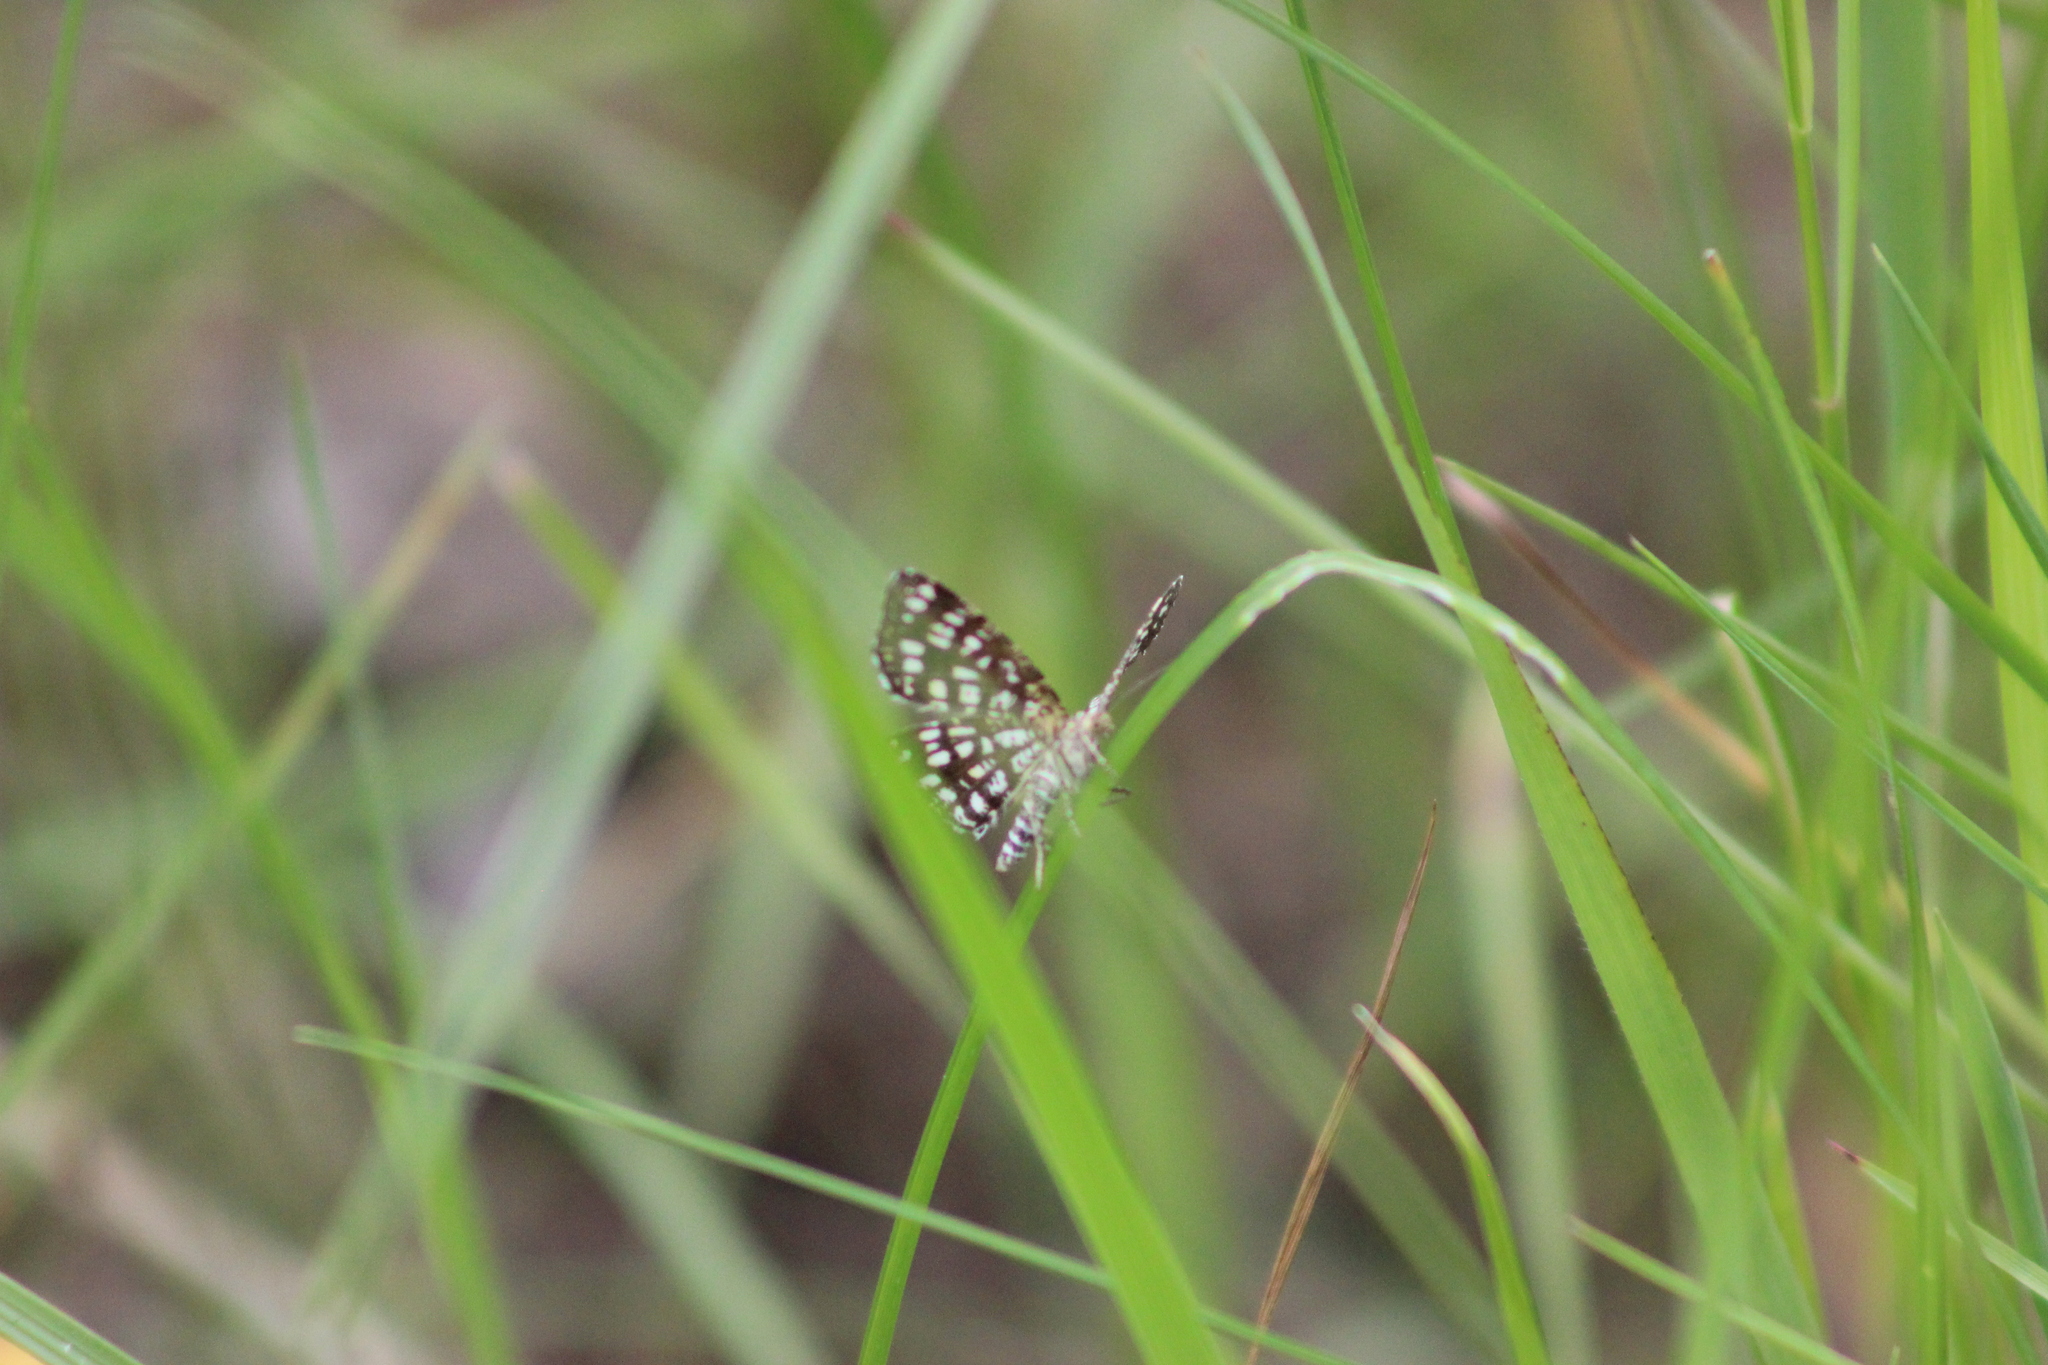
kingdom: Animalia
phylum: Arthropoda
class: Insecta
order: Lepidoptera
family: Geometridae
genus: Chiasmia
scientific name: Chiasmia clathrata
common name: Latticed heath
